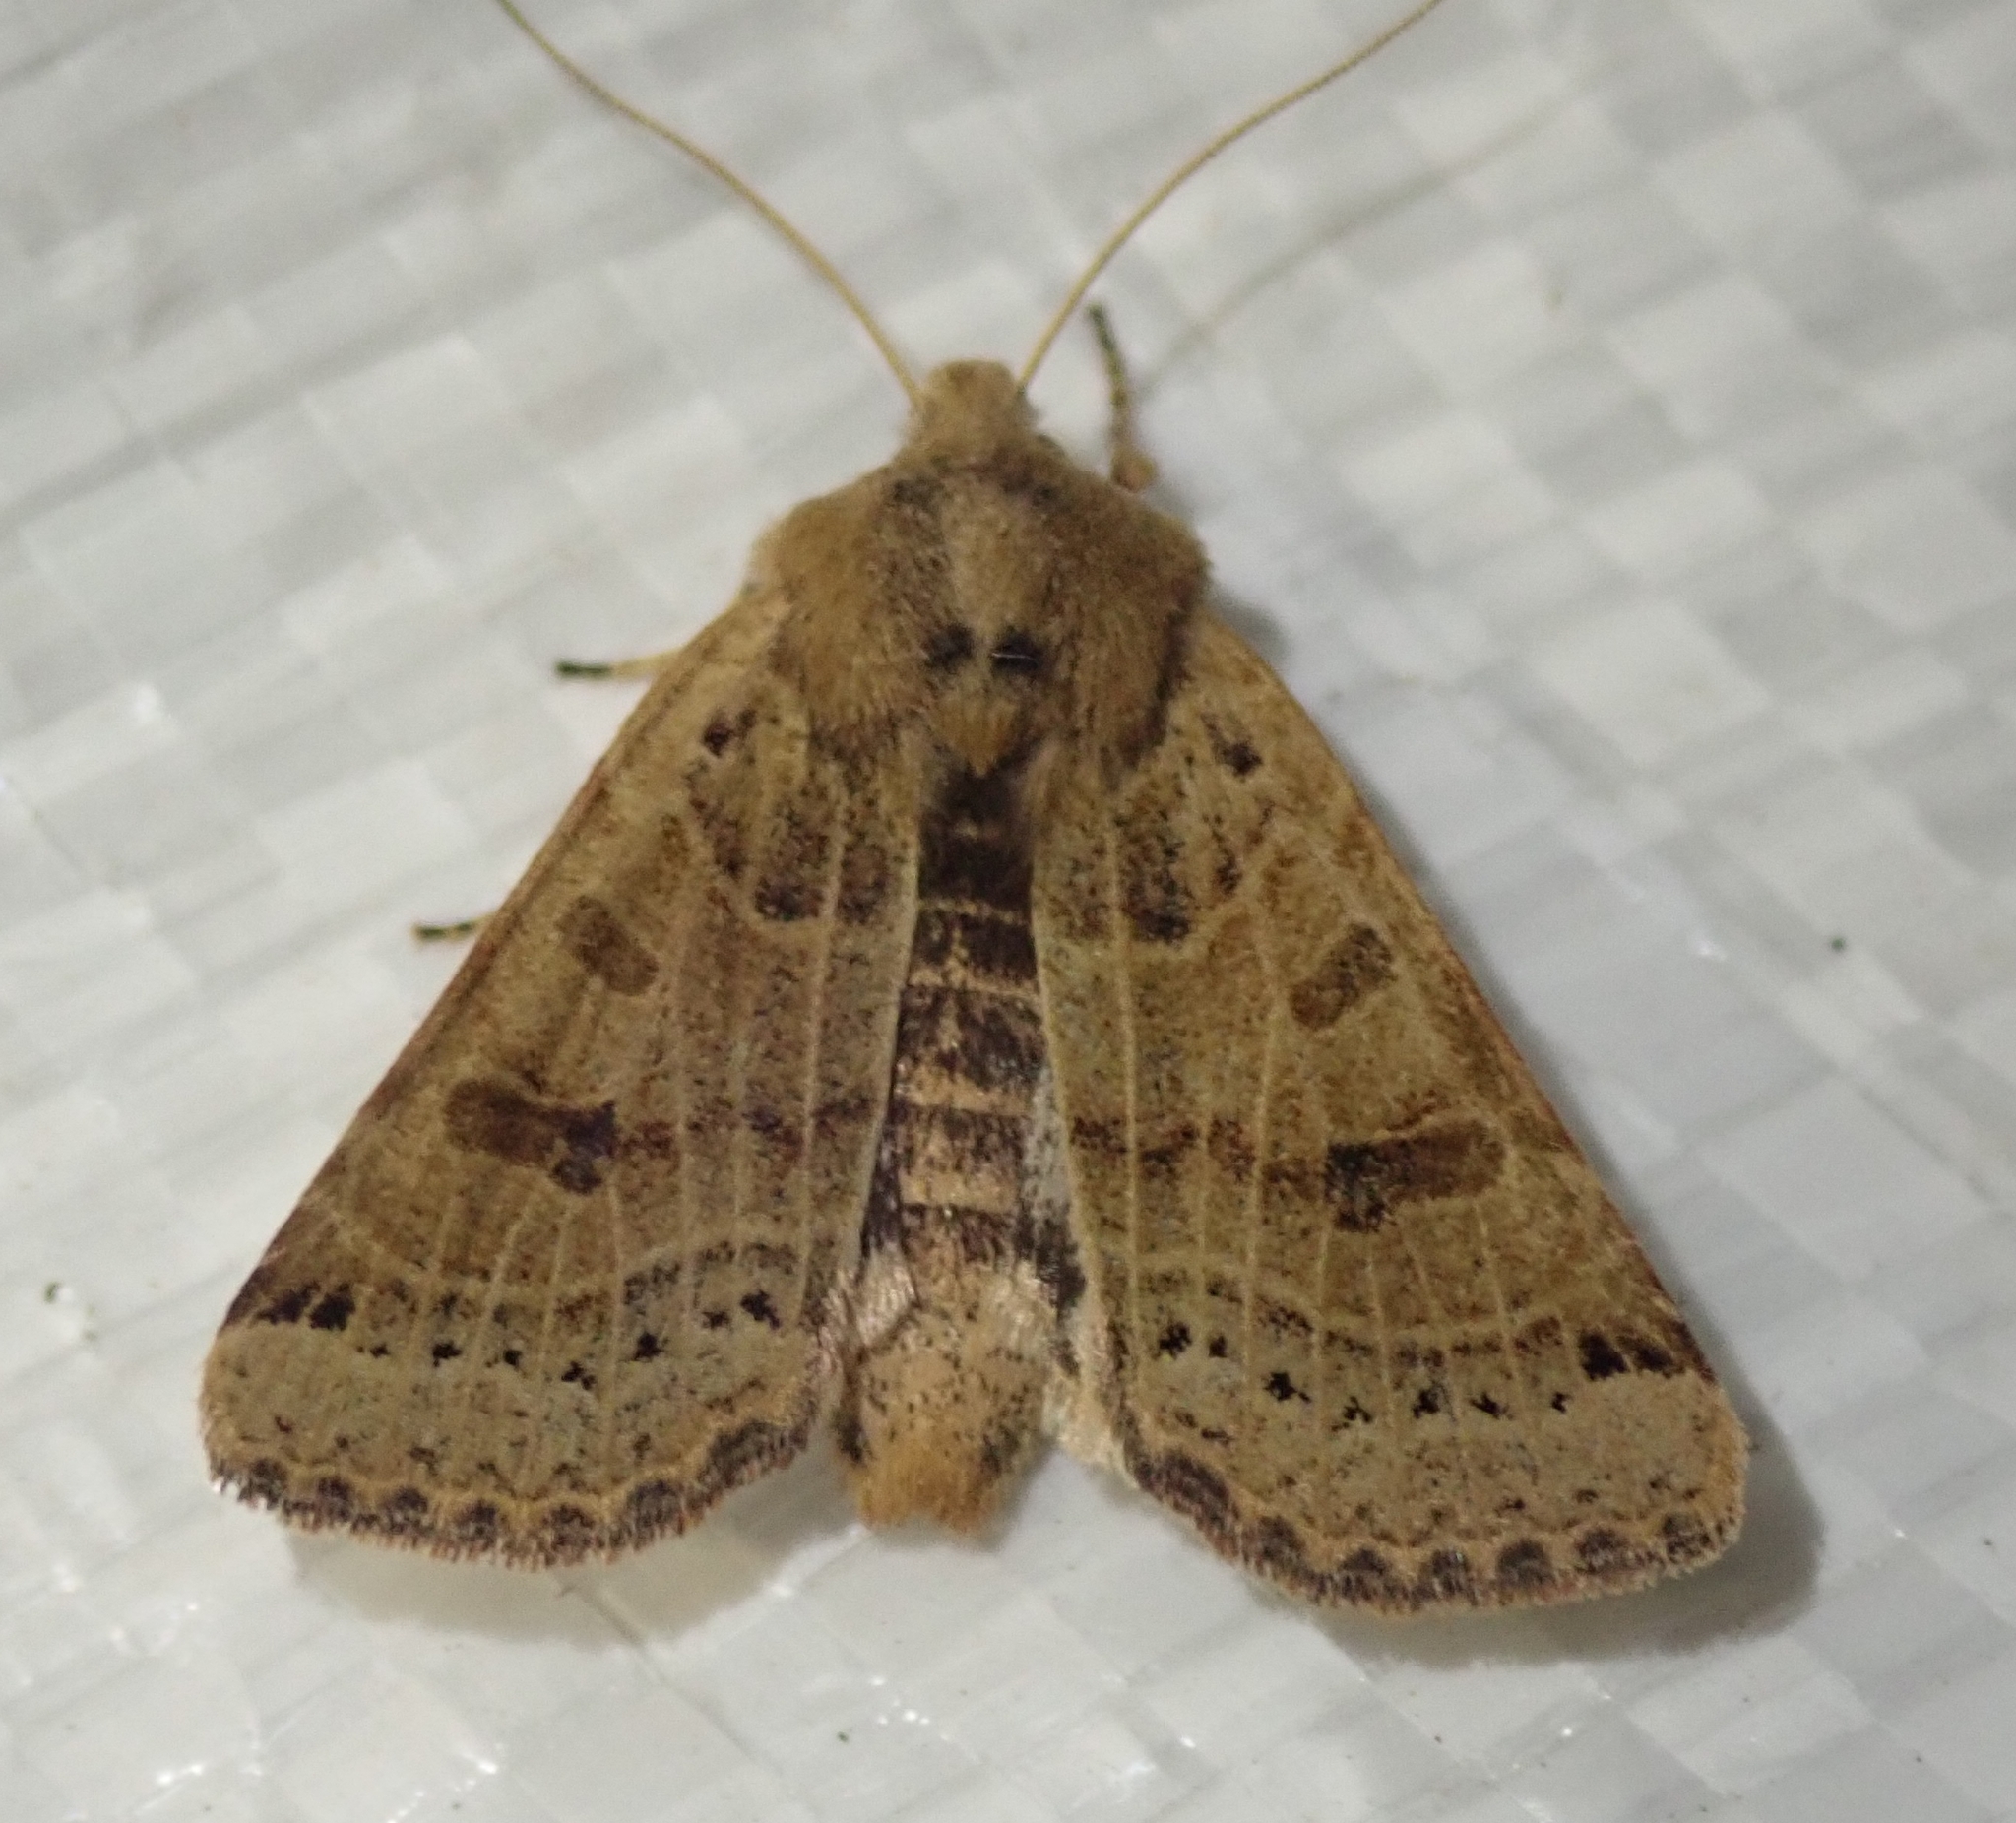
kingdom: Animalia
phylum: Arthropoda
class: Insecta
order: Lepidoptera
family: Noctuidae
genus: Agrochola
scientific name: Agrochola lunosa
